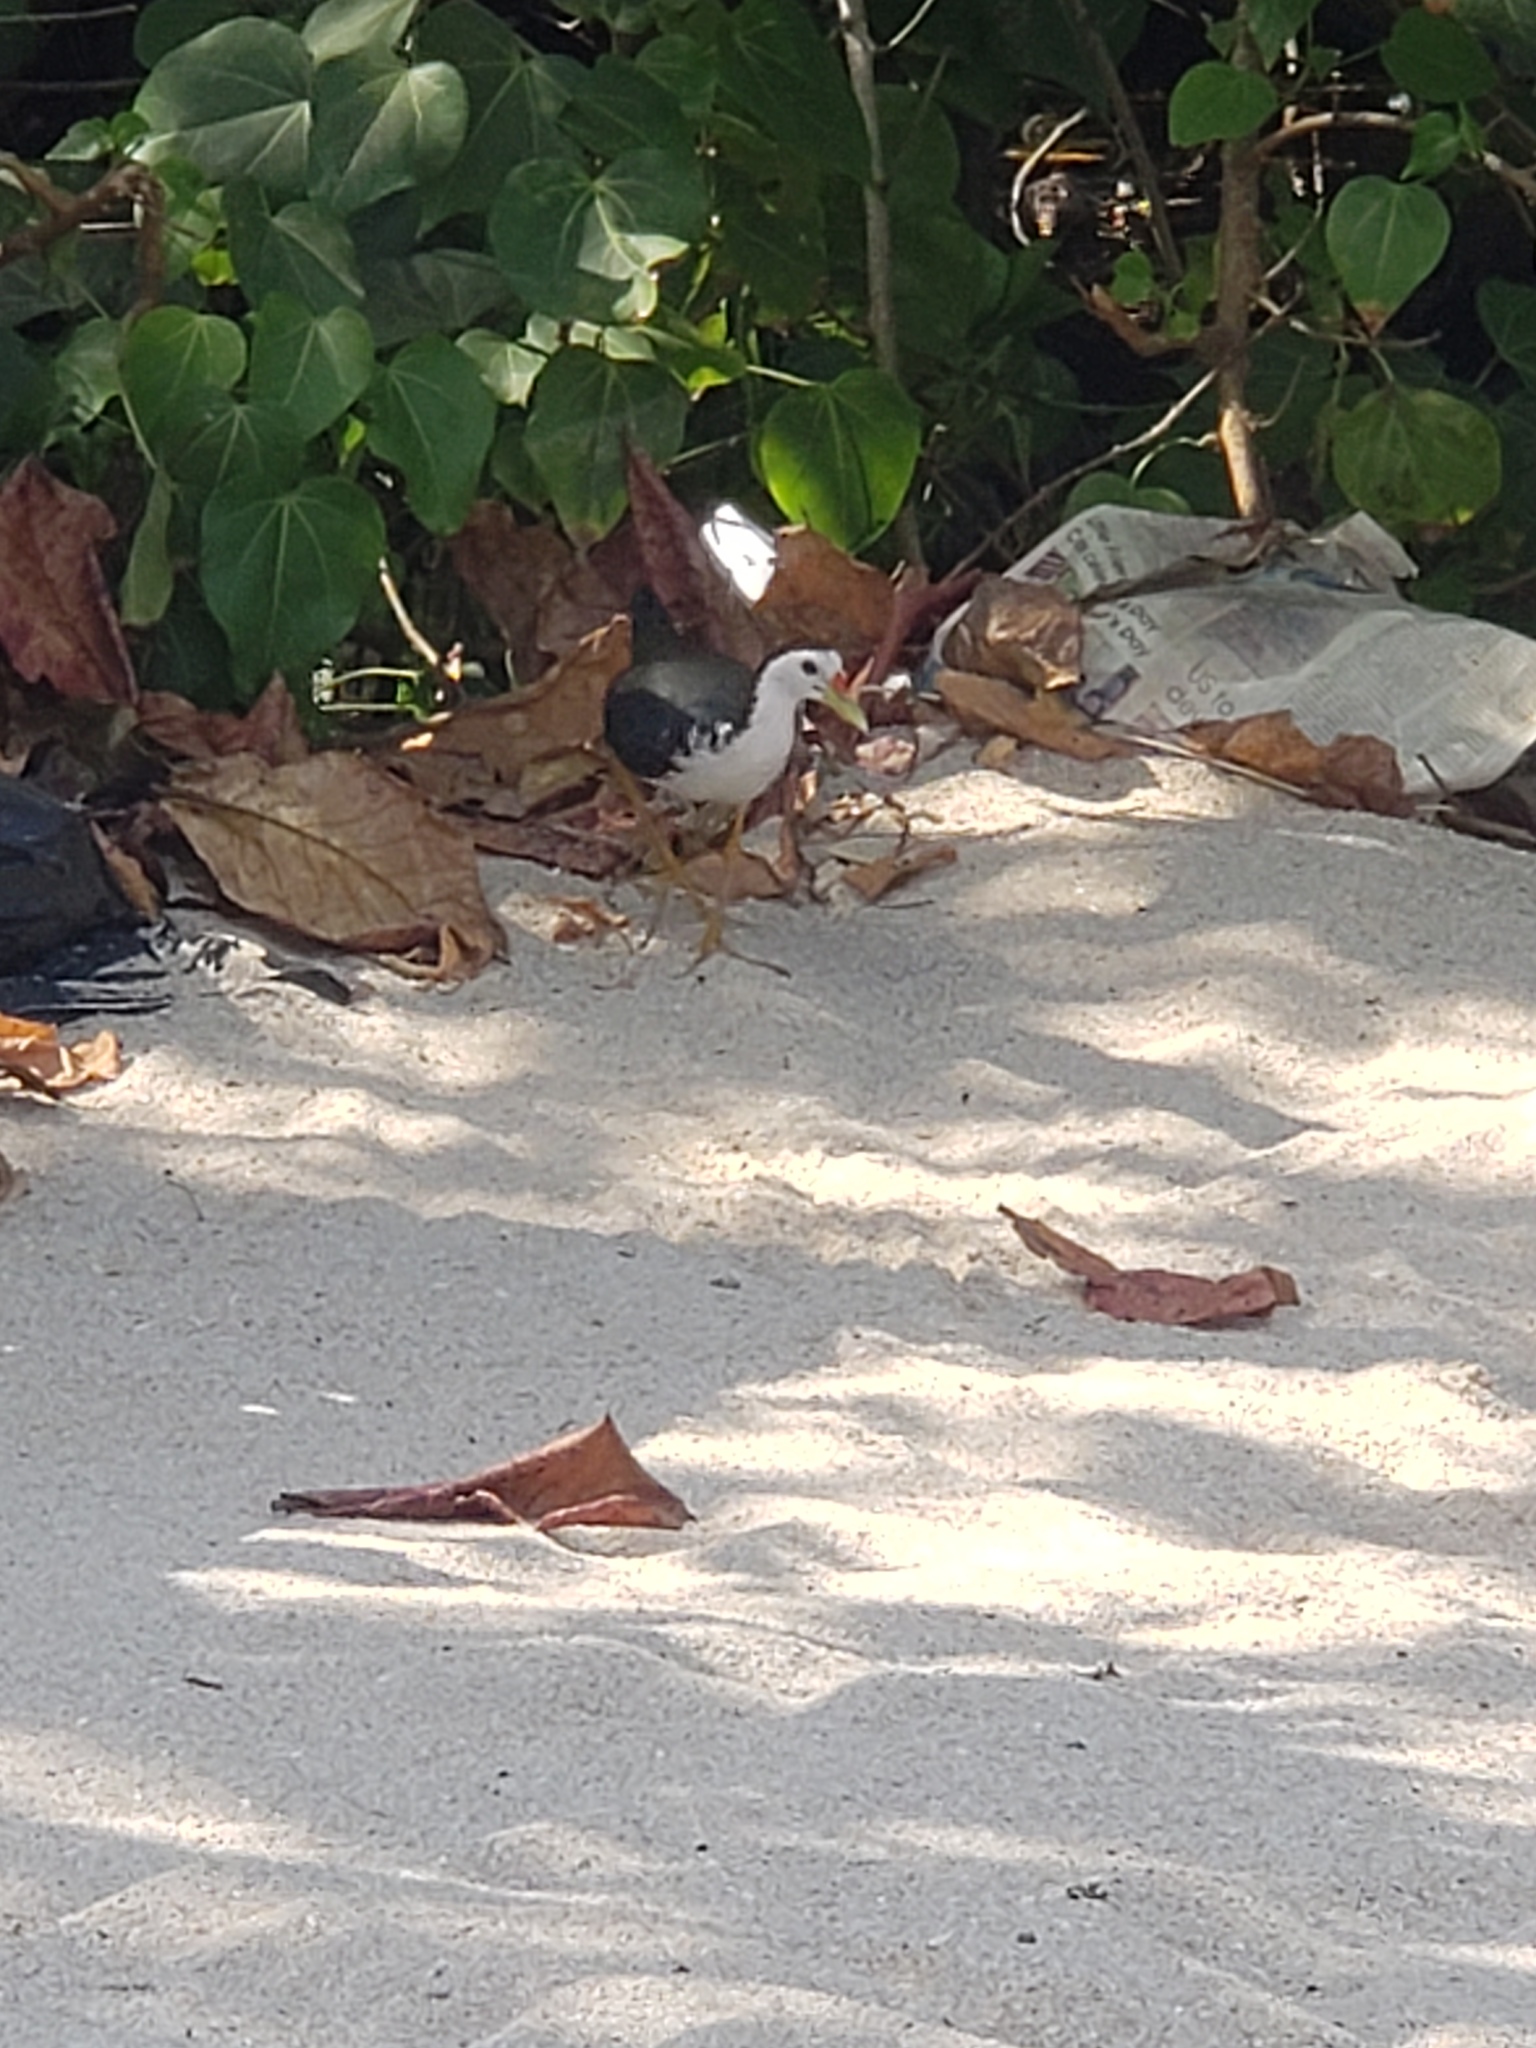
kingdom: Animalia
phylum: Chordata
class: Aves
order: Gruiformes
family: Rallidae
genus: Amaurornis
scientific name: Amaurornis phoenicurus
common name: White-breasted waterhen
